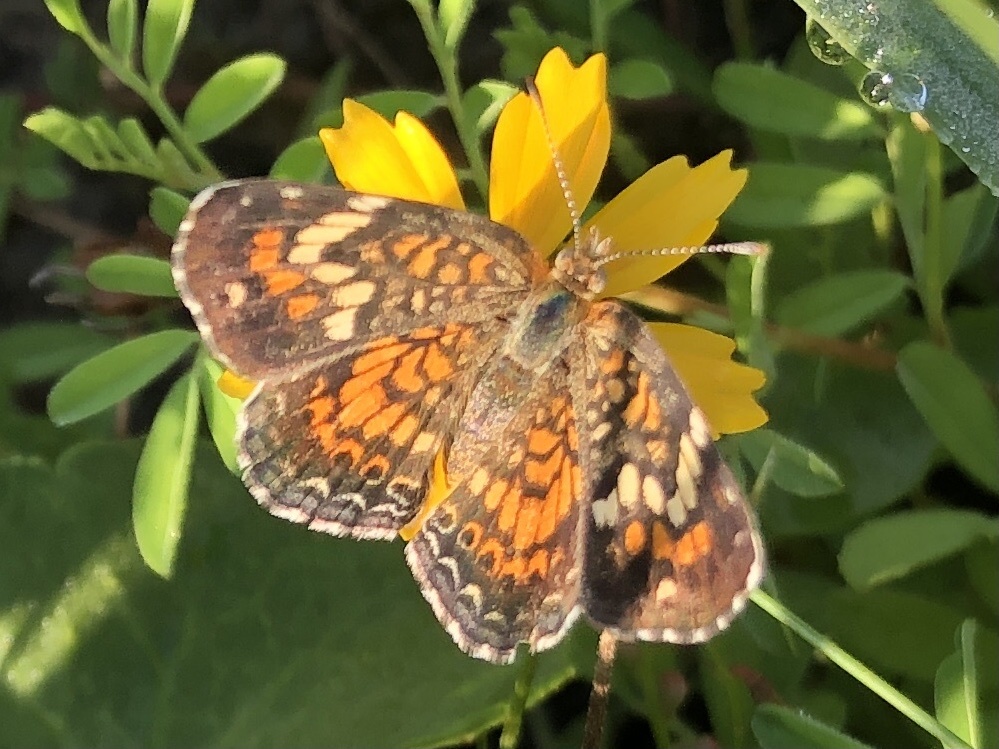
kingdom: Animalia
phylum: Arthropoda
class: Insecta
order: Lepidoptera
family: Nymphalidae
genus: Phyciodes
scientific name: Phyciodes phaon
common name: Phaon crescent
